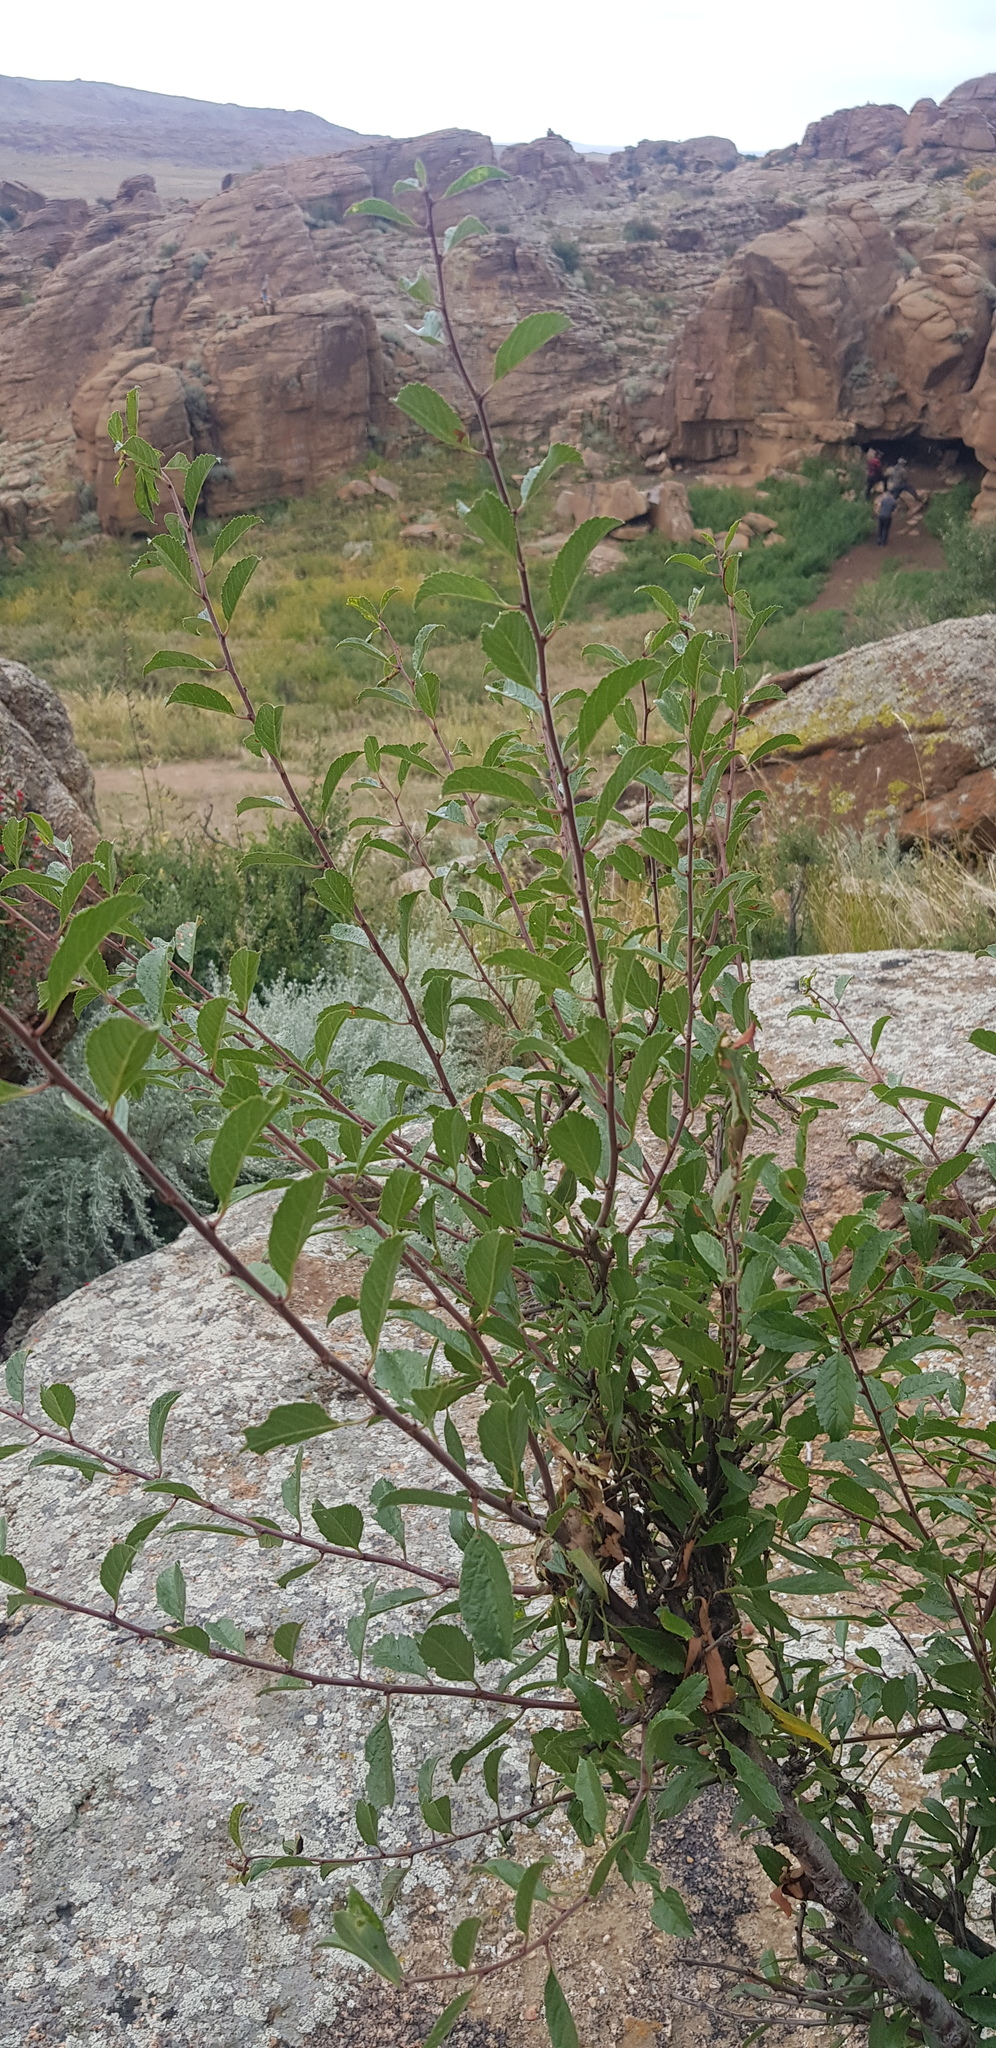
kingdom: Plantae
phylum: Tracheophyta
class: Magnoliopsida
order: Rosales
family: Ulmaceae
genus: Ulmus
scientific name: Ulmus pumila
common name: Siberian elm
